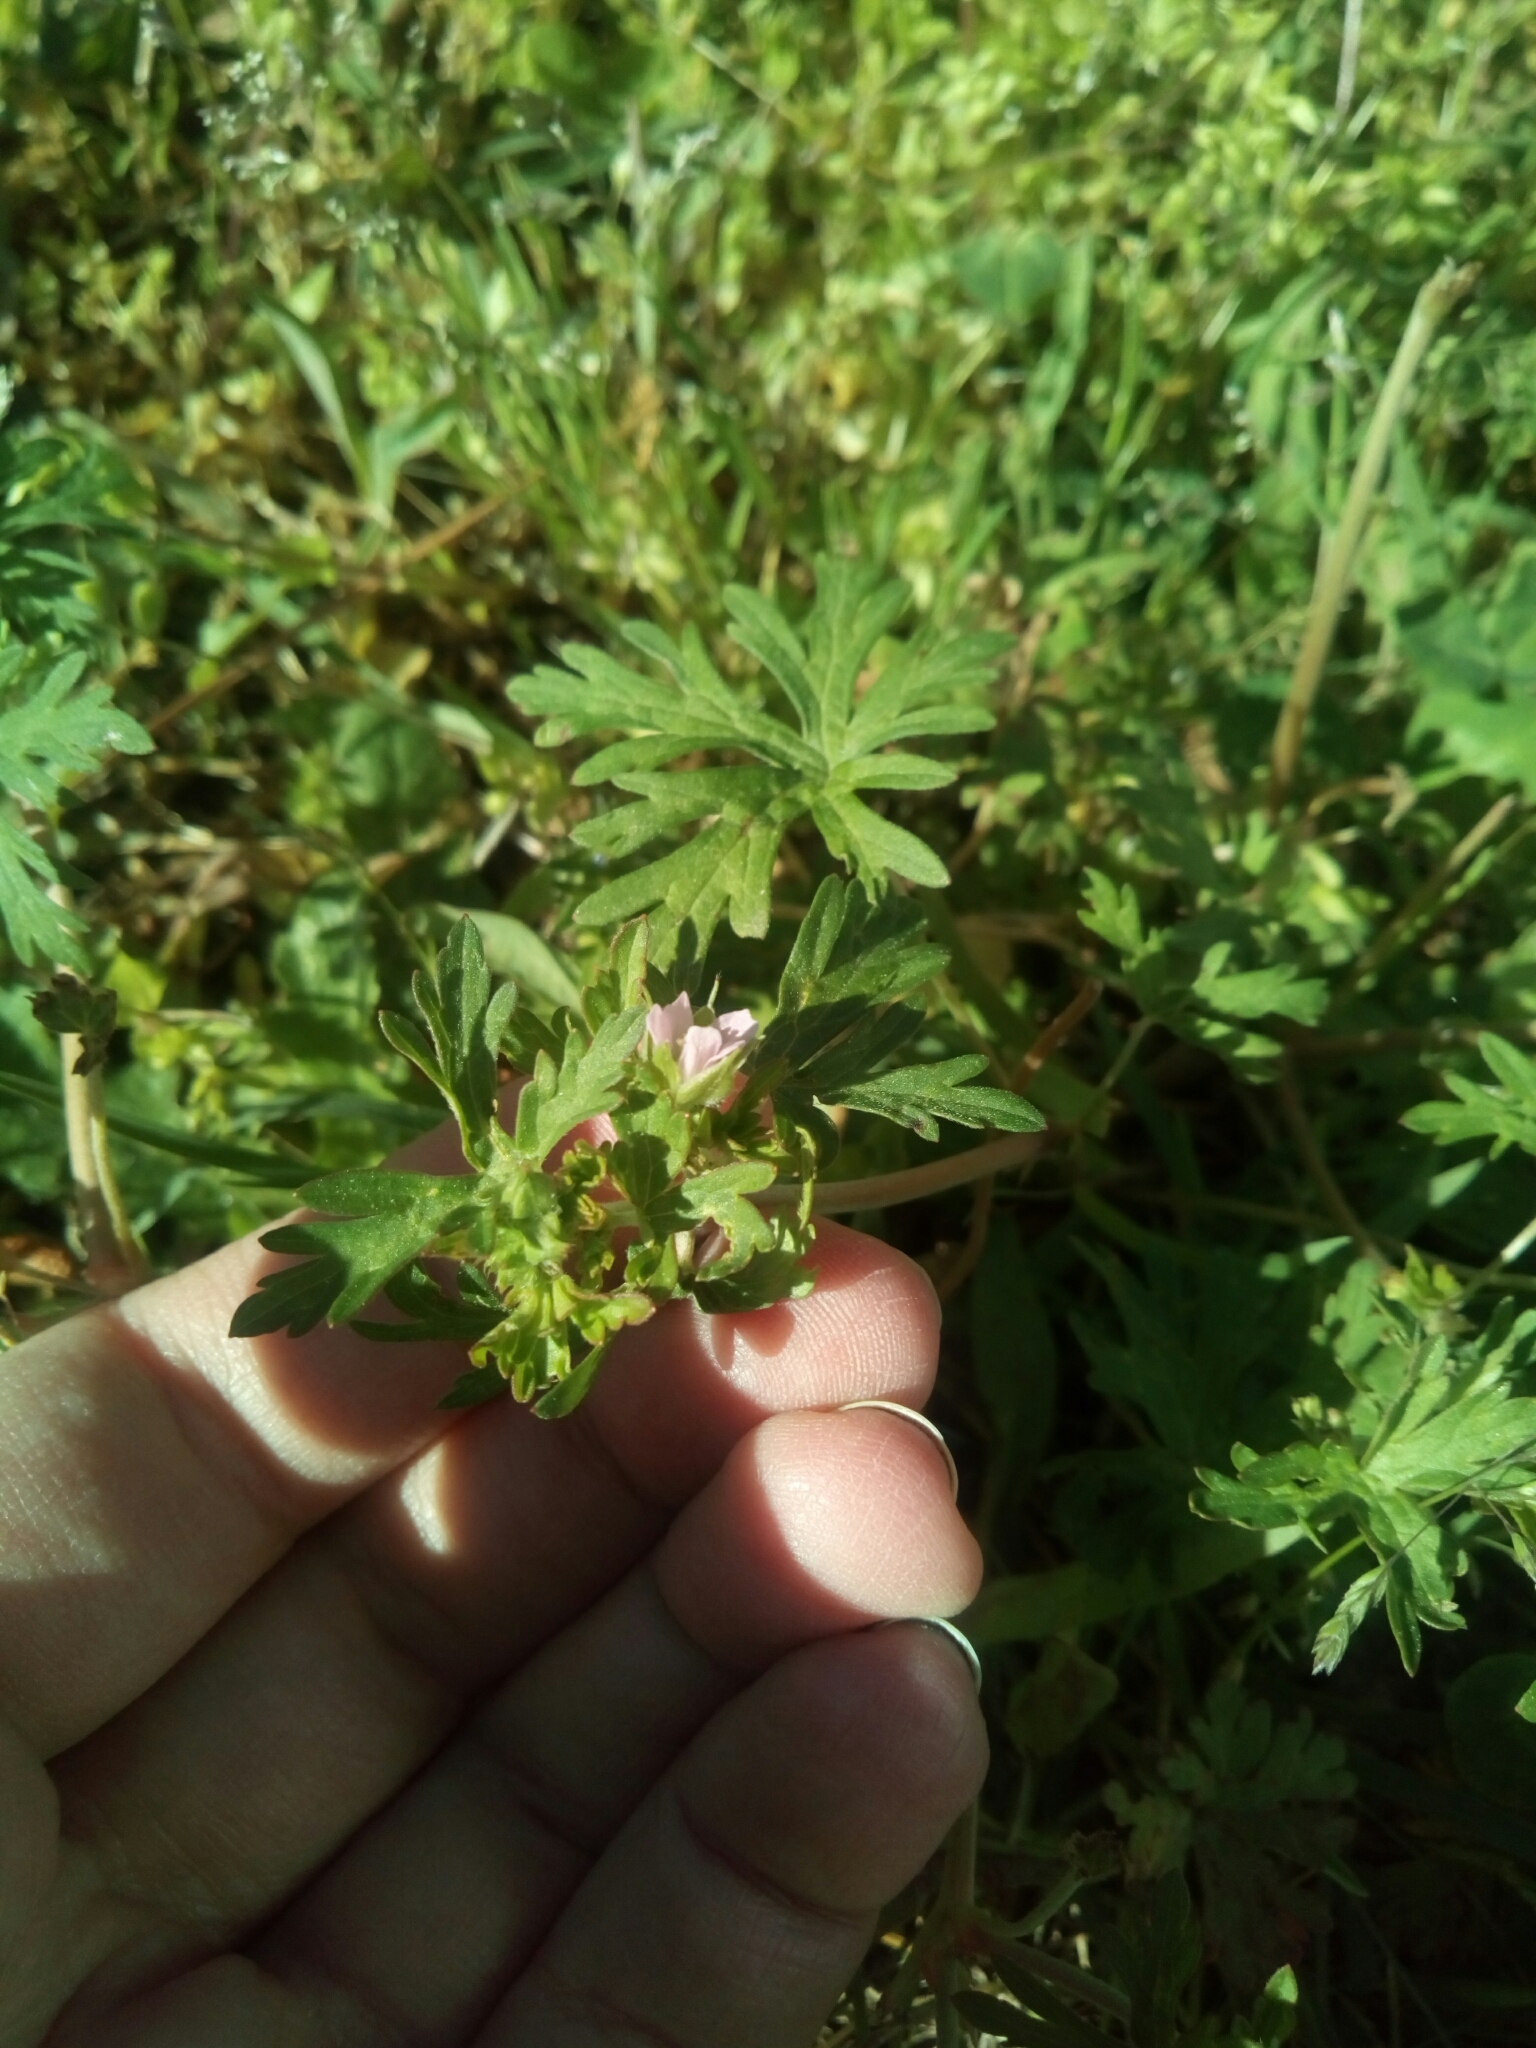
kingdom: Plantae
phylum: Tracheophyta
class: Magnoliopsida
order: Geraniales
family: Geraniaceae
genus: Geranium
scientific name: Geranium carolinianum
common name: Carolina crane's-bill
